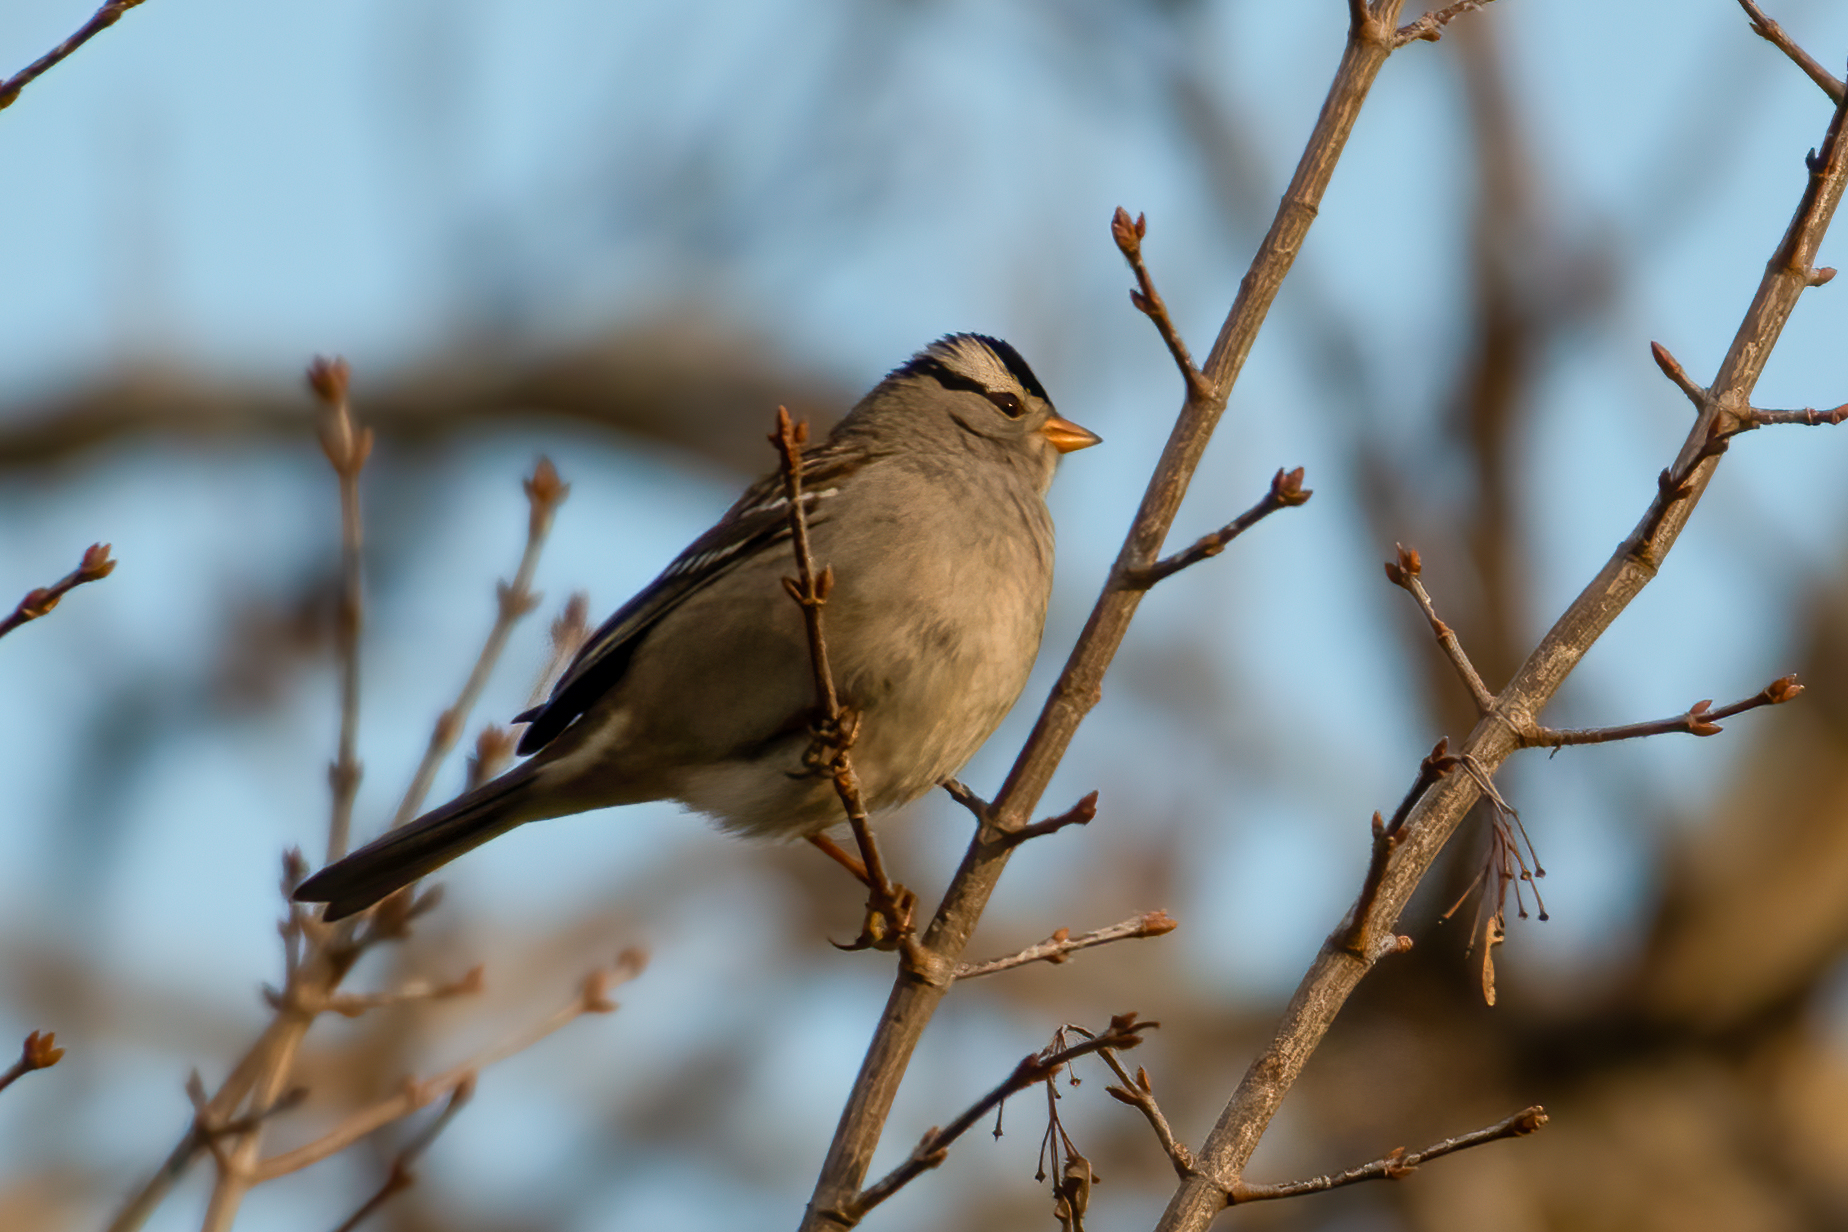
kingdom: Animalia
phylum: Chordata
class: Aves
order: Passeriformes
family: Passerellidae
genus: Zonotrichia
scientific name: Zonotrichia leucophrys
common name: White-crowned sparrow
